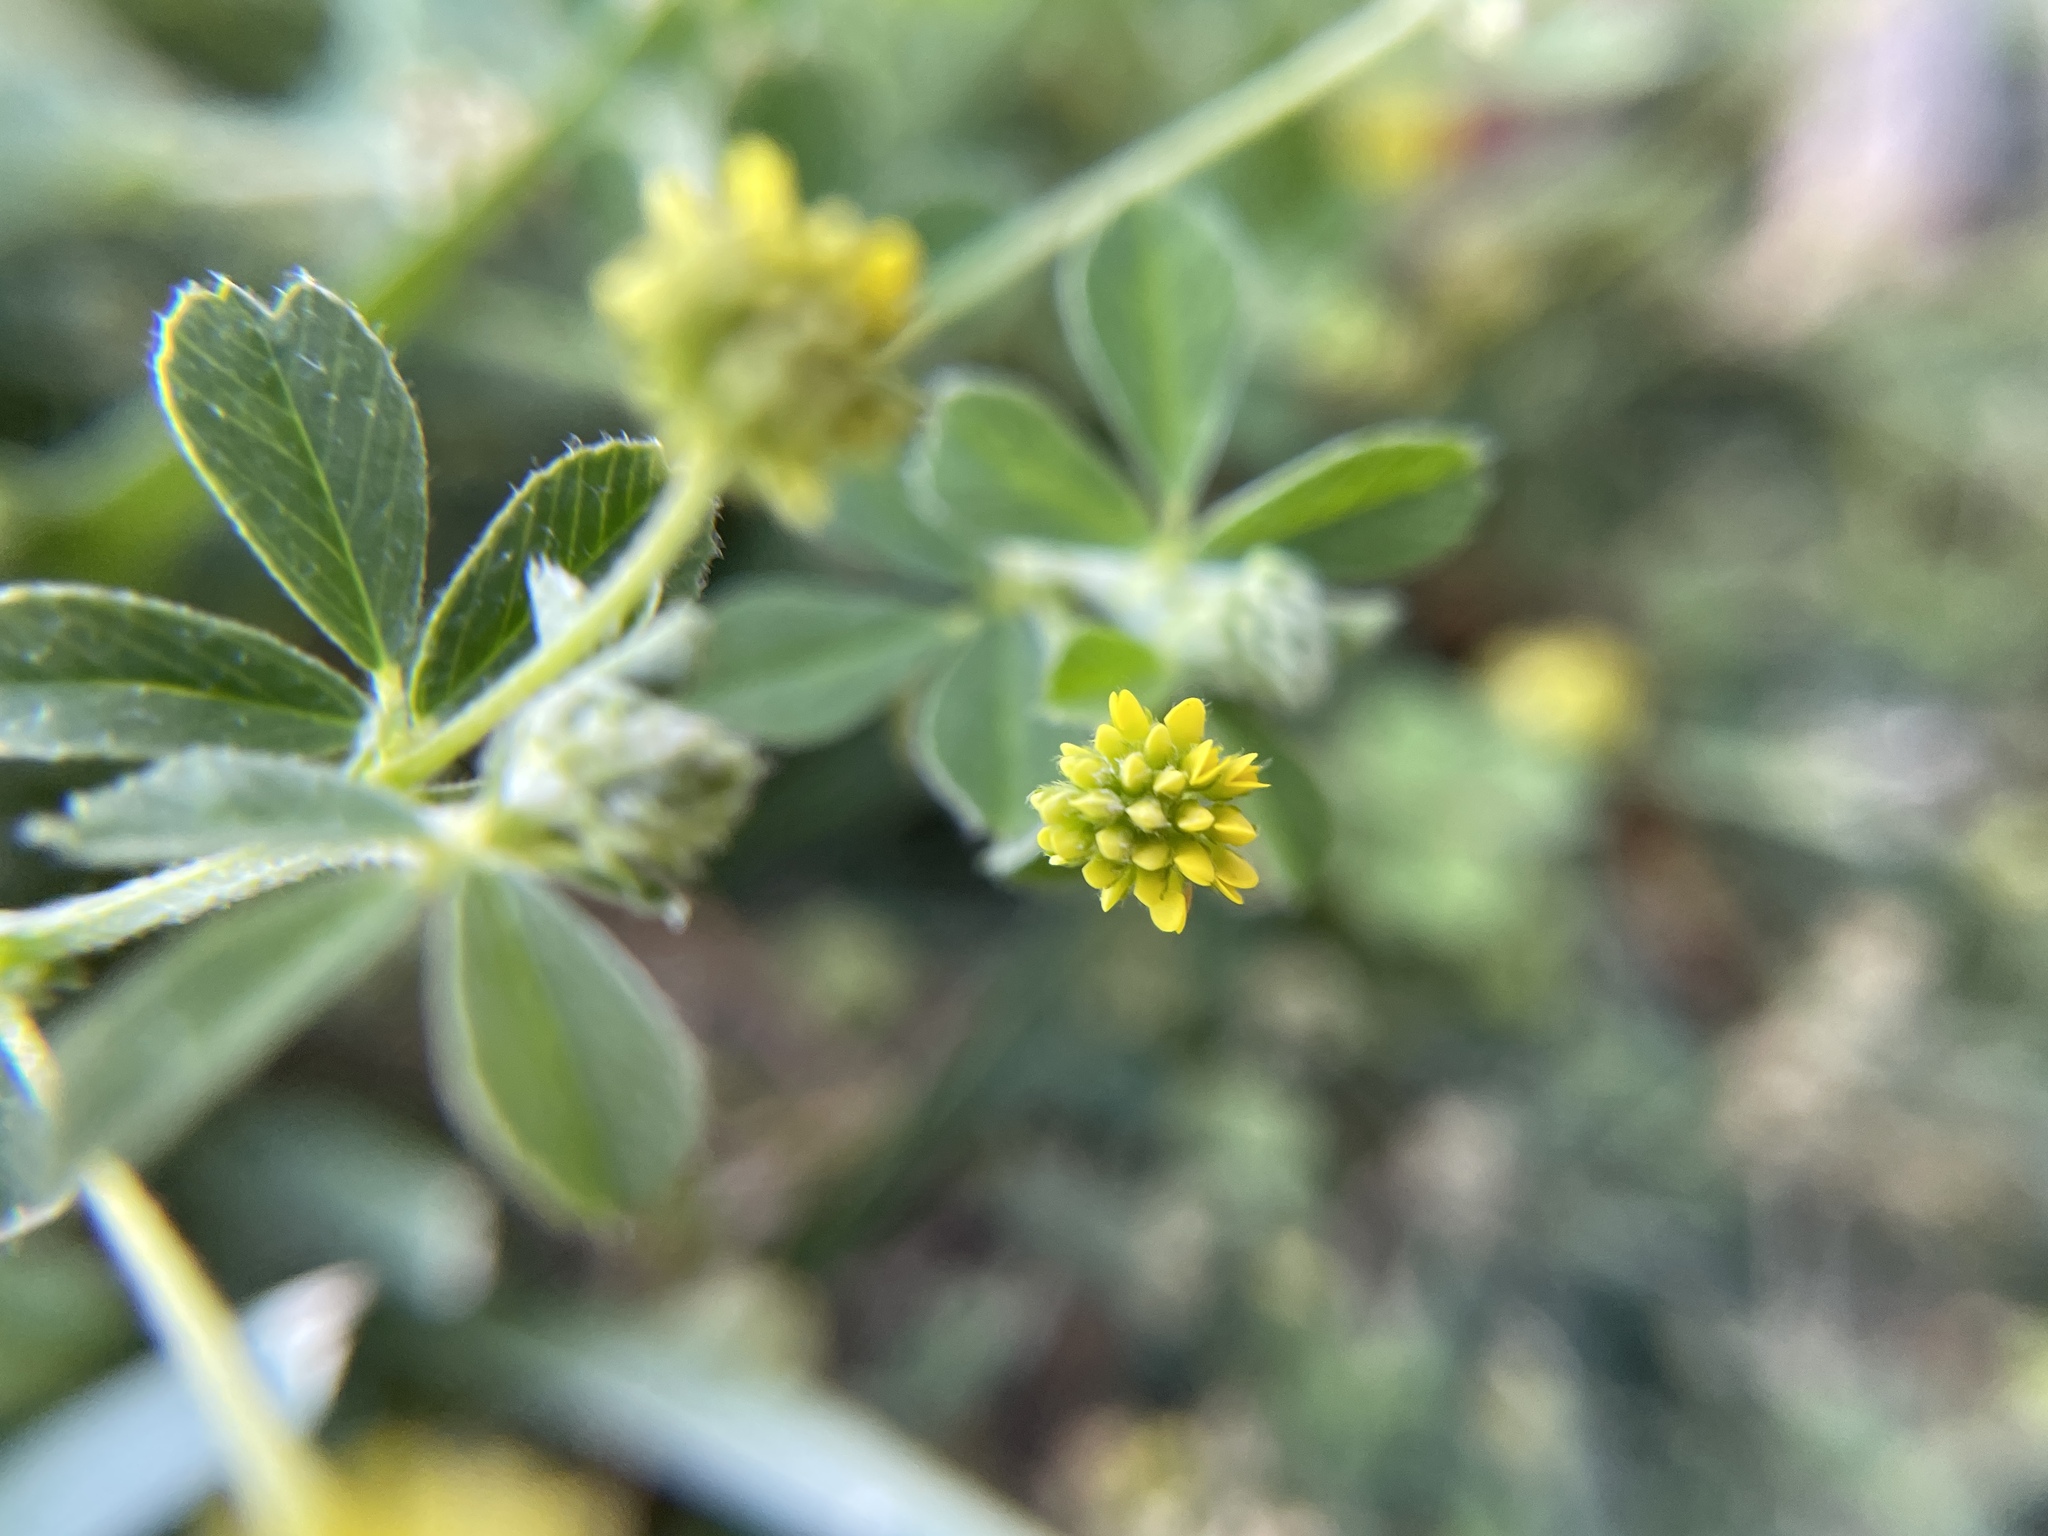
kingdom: Plantae
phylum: Tracheophyta
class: Magnoliopsida
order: Fabales
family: Fabaceae
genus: Medicago
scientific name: Medicago lupulina
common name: Black medick
